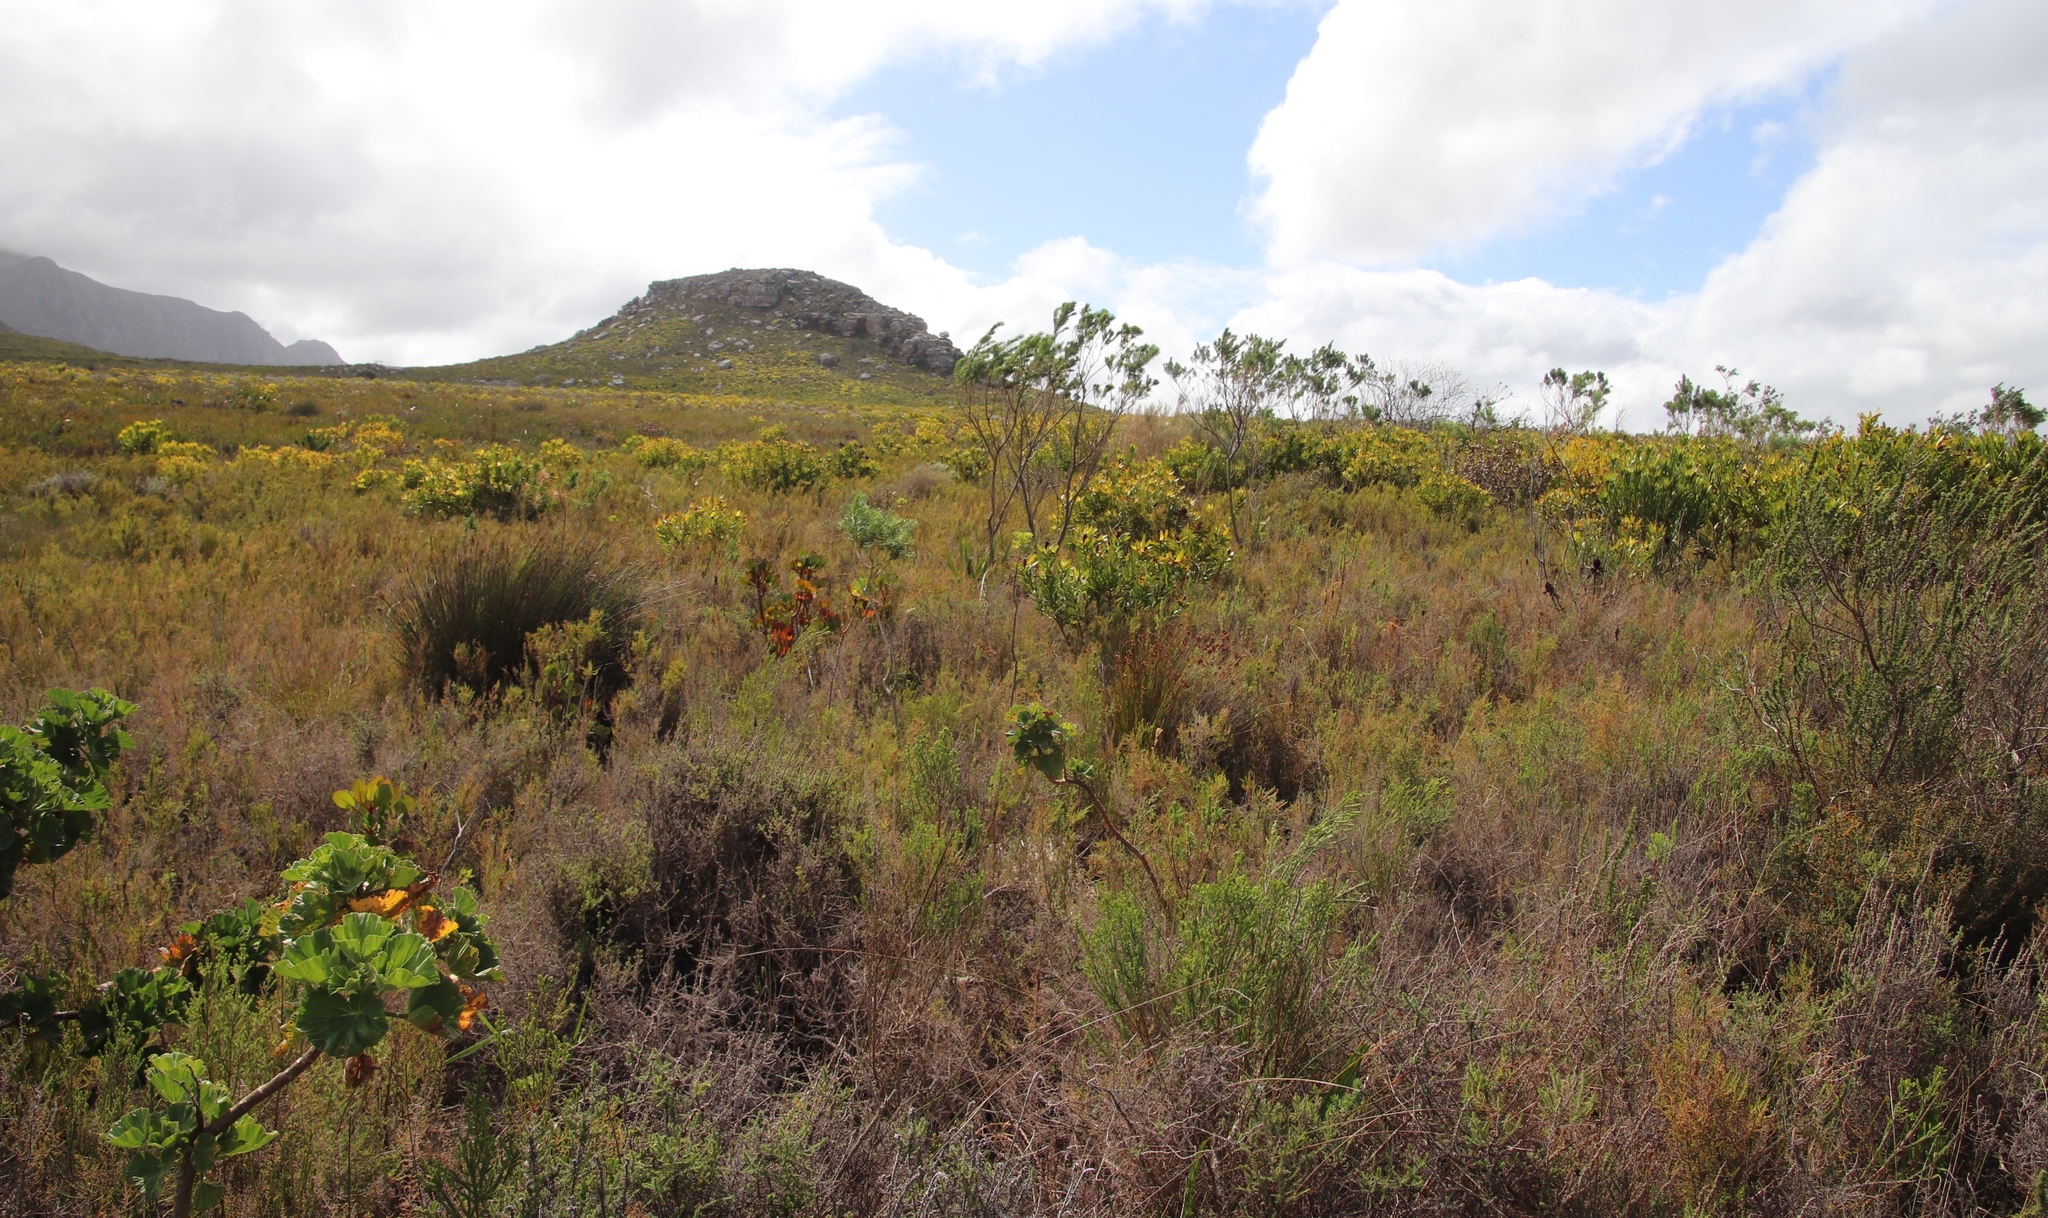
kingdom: Plantae
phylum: Tracheophyta
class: Magnoliopsida
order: Proteales
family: Proteaceae
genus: Leucadendron
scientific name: Leucadendron laureolum
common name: Golden sunshinebush
